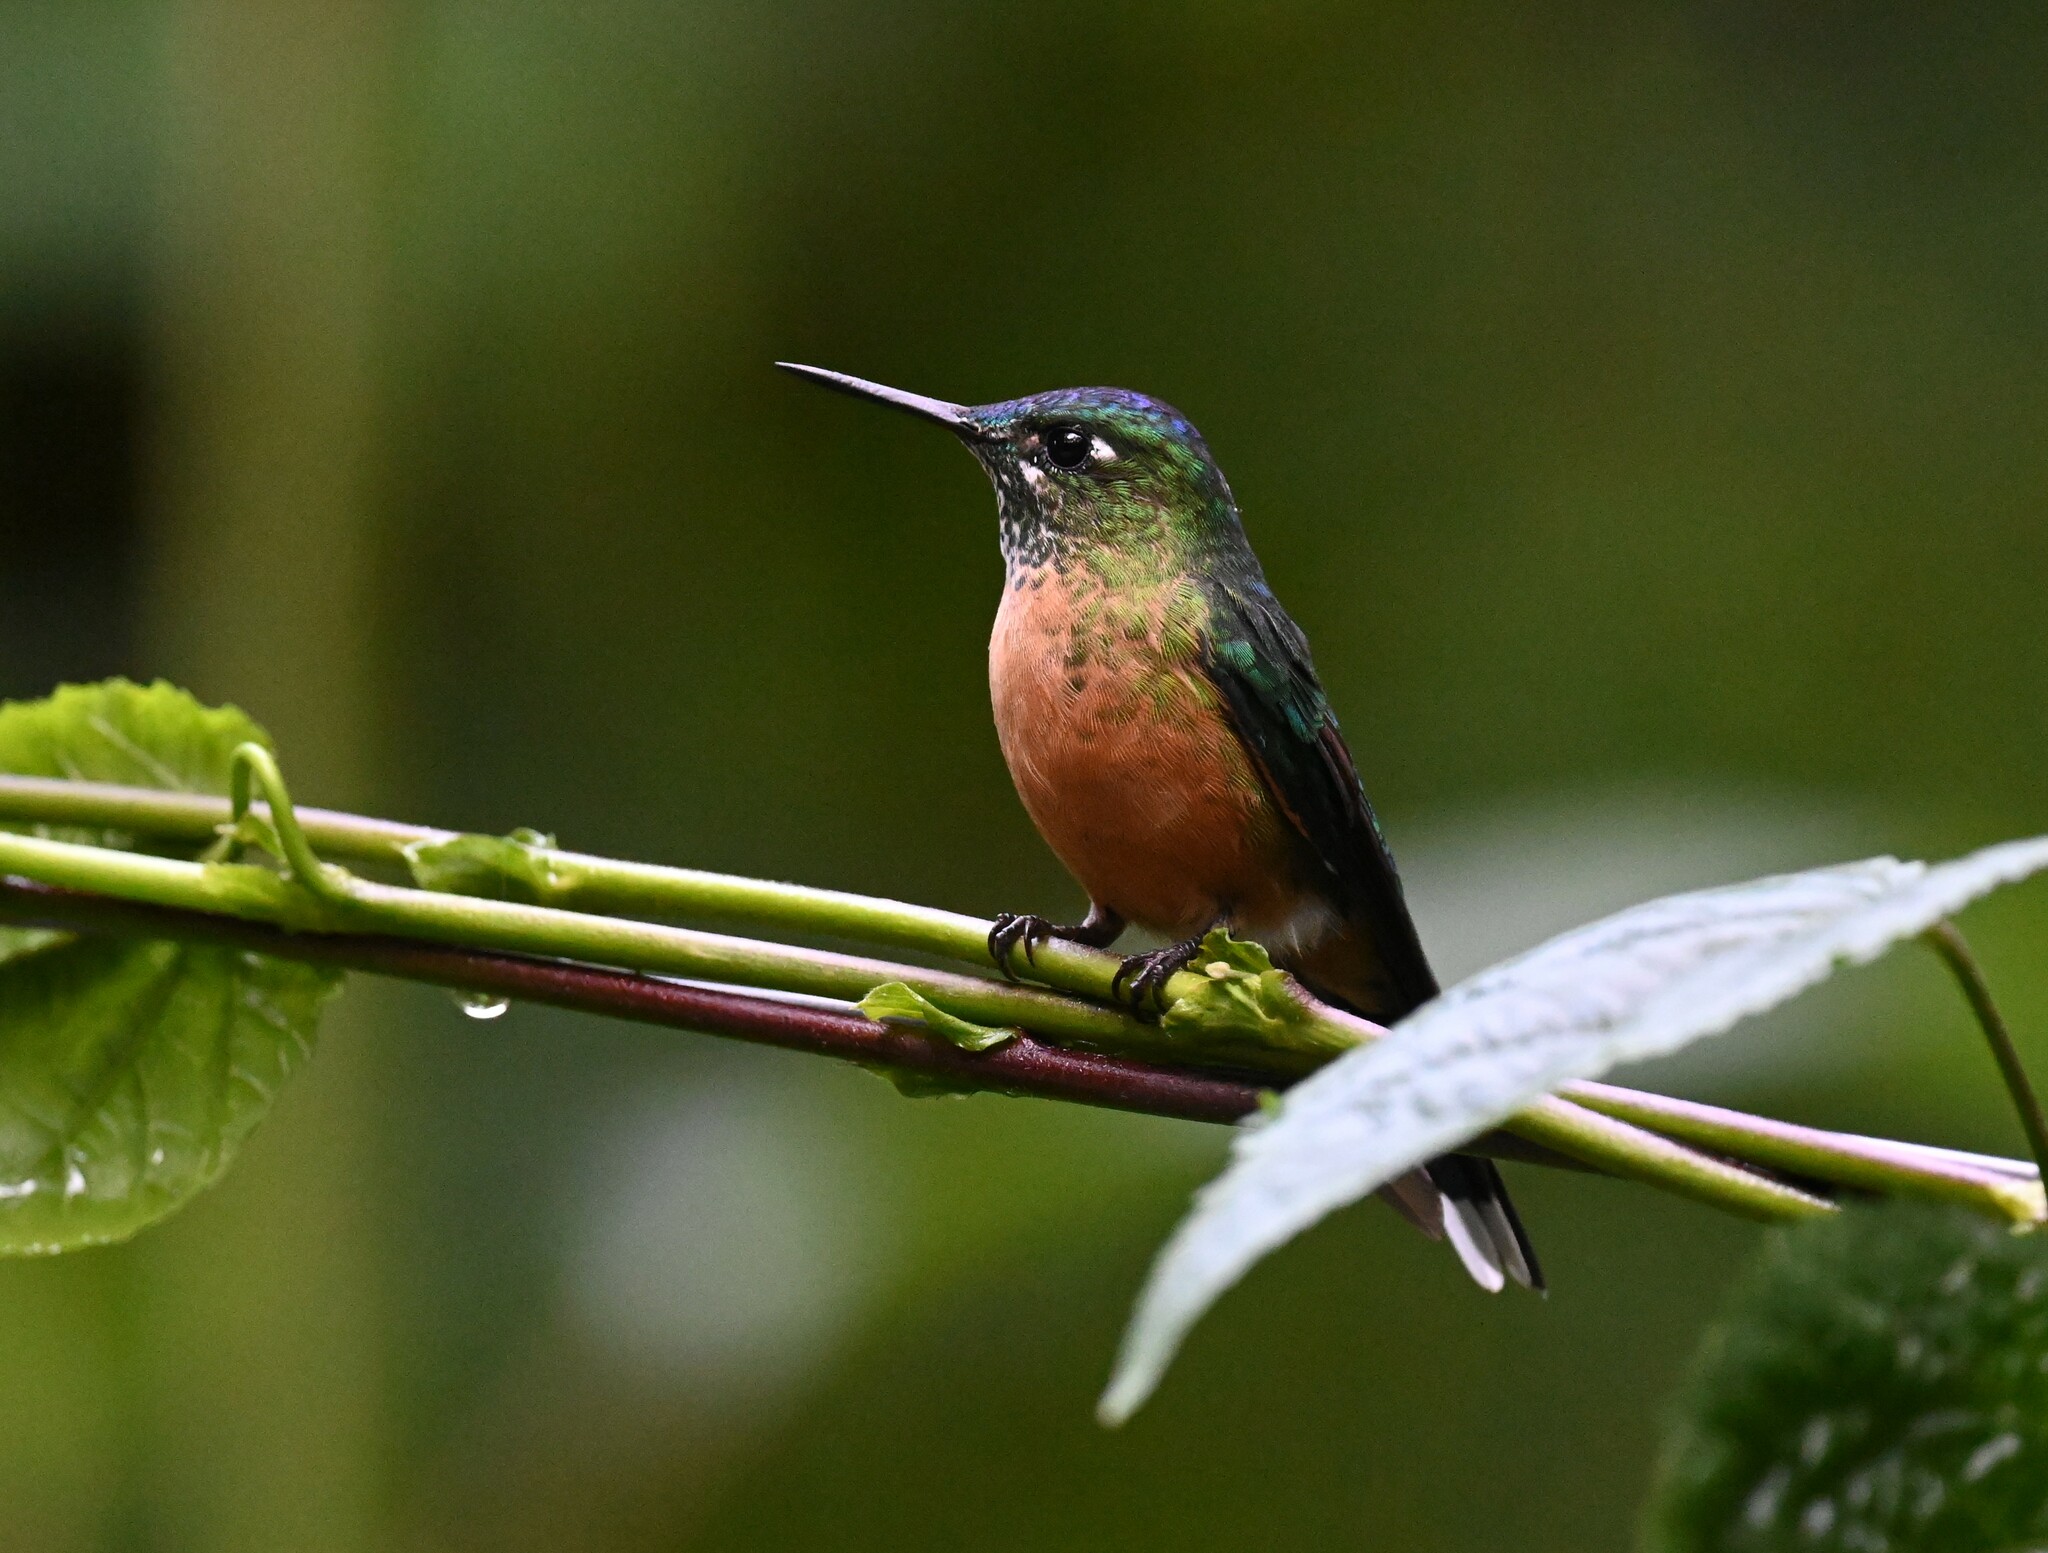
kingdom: Animalia
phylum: Chordata
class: Aves
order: Apodiformes
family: Trochilidae
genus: Aglaiocercus
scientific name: Aglaiocercus kingii
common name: Long-tailed sylph
